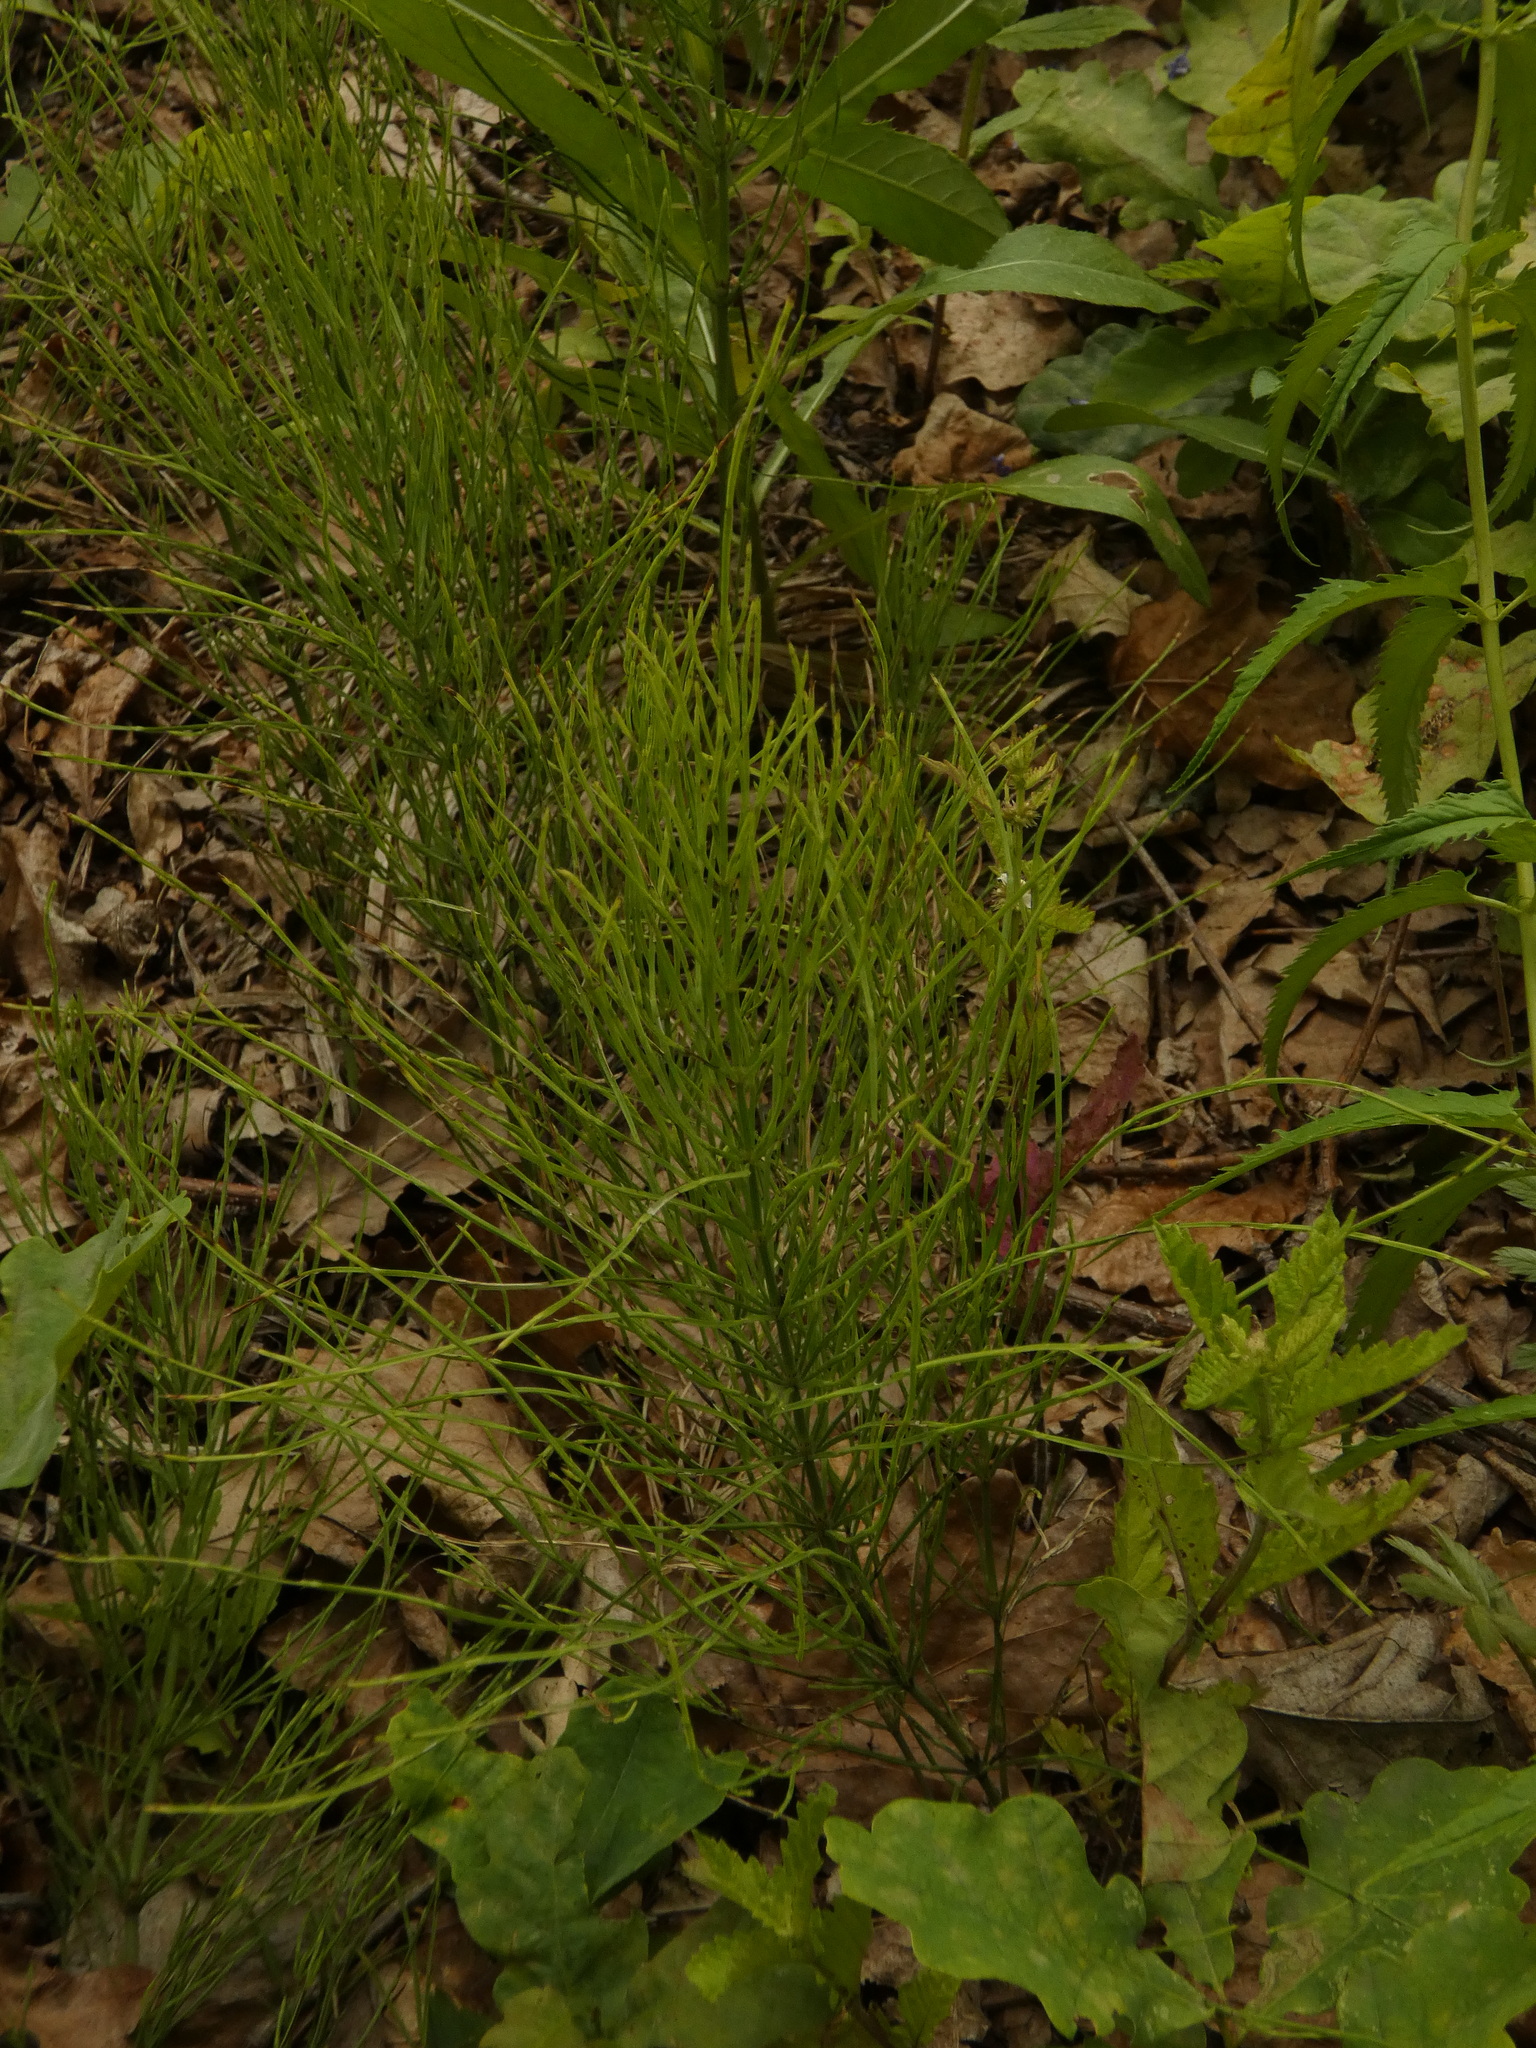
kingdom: Plantae
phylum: Tracheophyta
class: Polypodiopsida
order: Equisetales
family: Equisetaceae
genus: Equisetum
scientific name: Equisetum arvense
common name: Field horsetail
